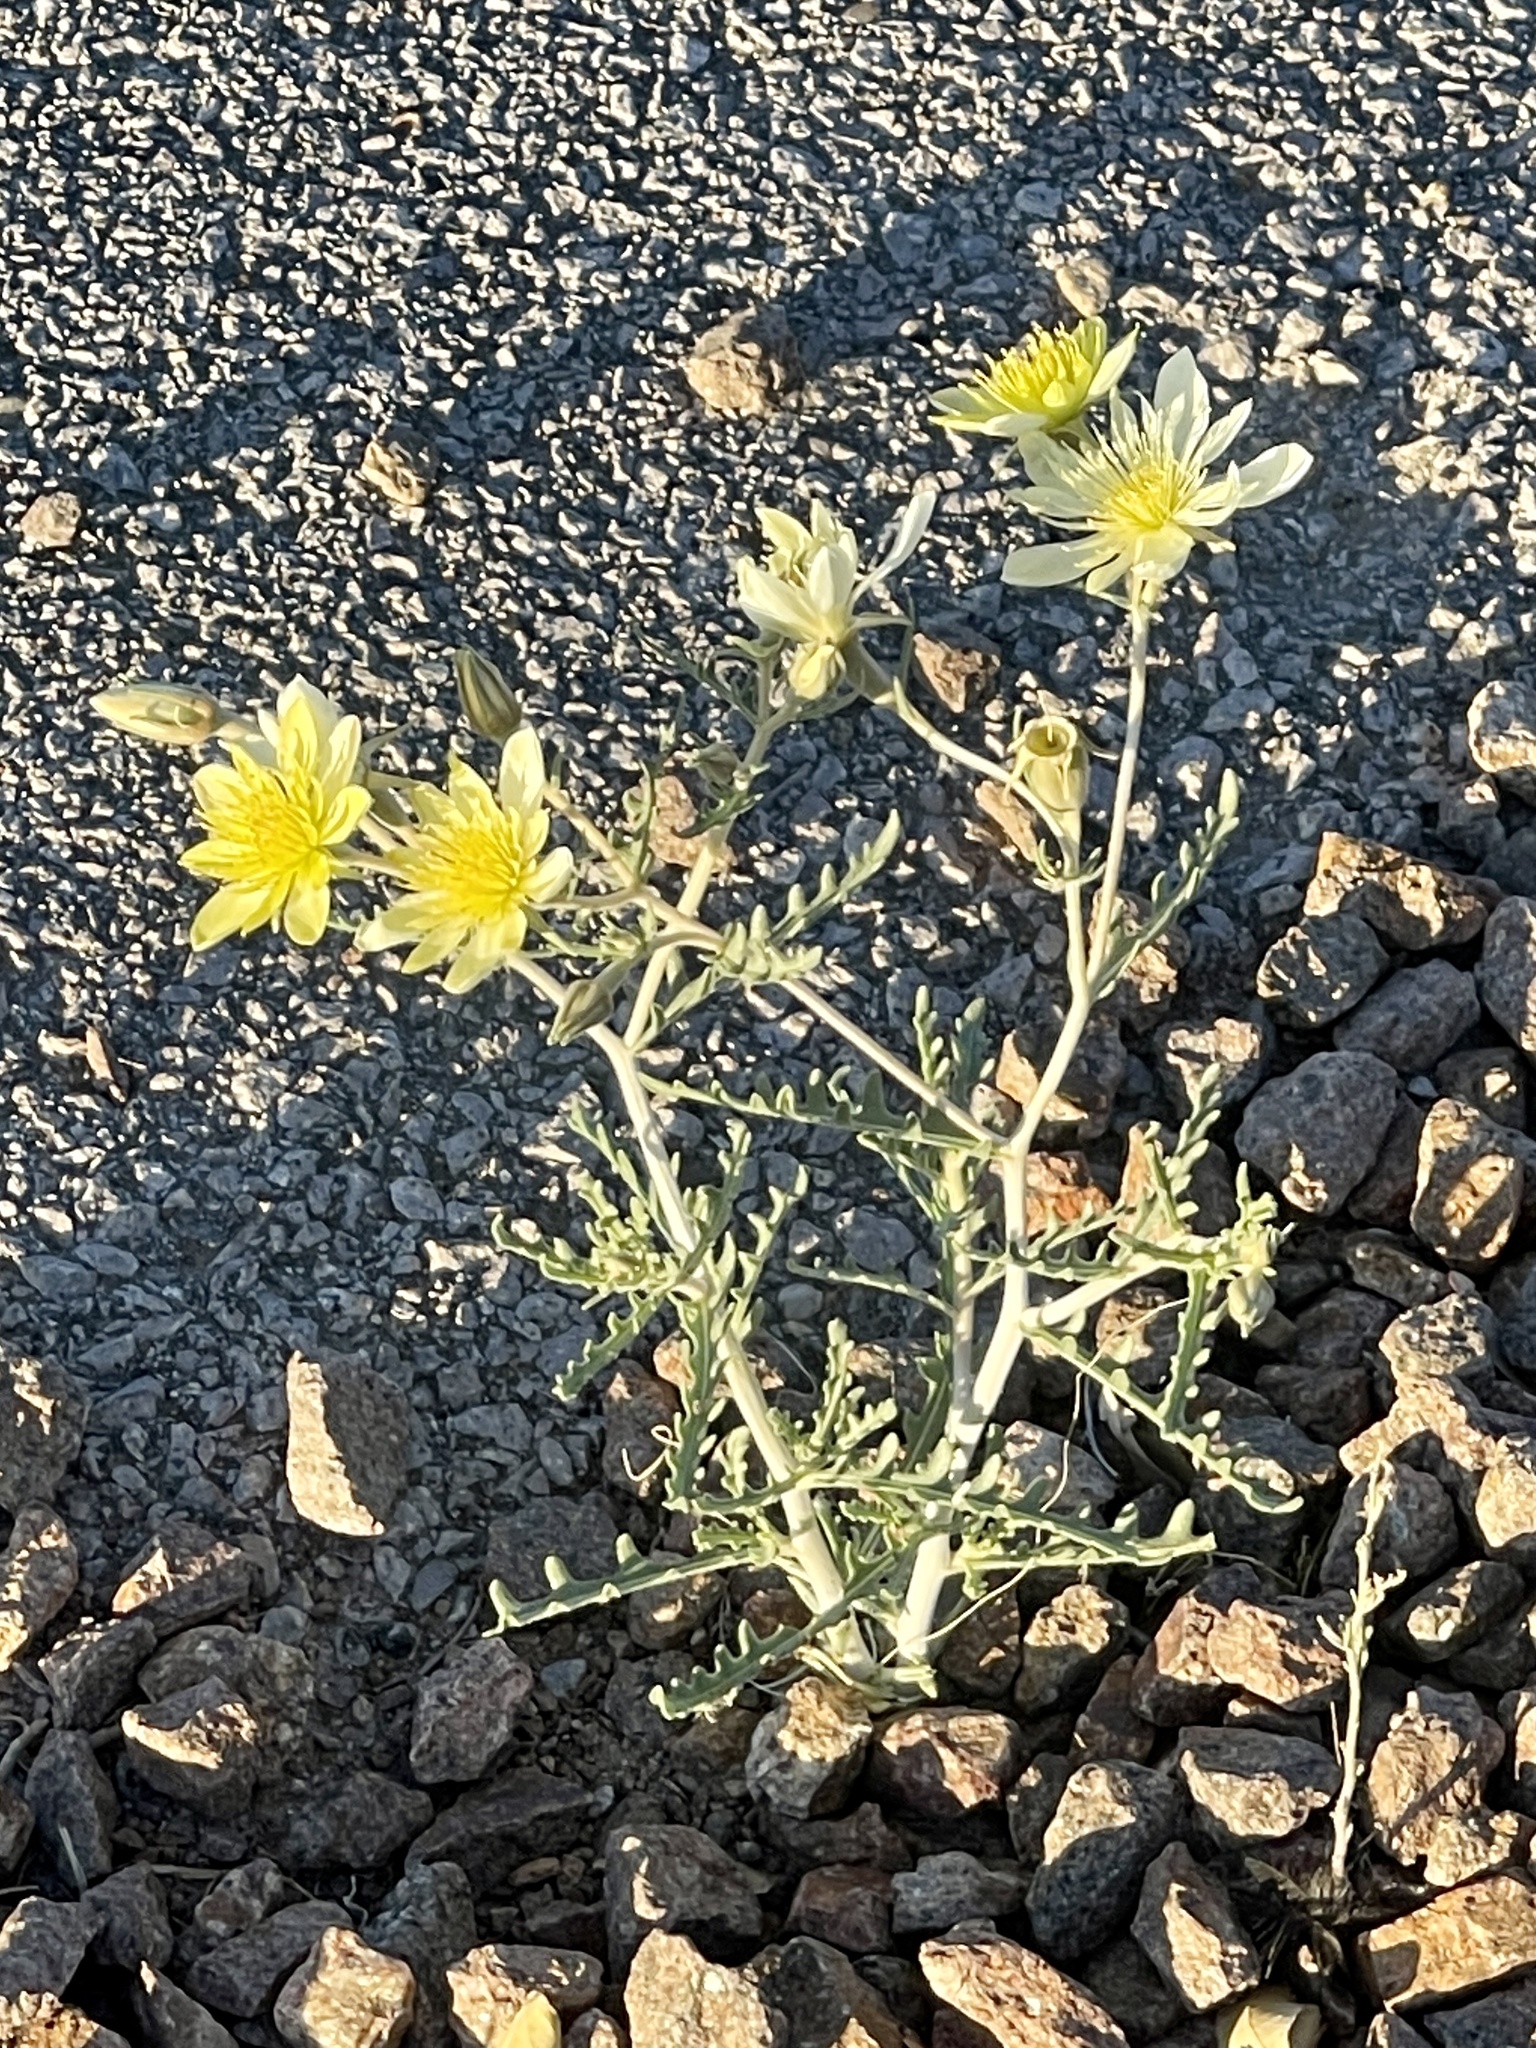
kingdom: Plantae
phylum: Tracheophyta
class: Magnoliopsida
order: Cornales
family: Loasaceae
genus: Mentzelia
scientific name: Mentzelia procera
